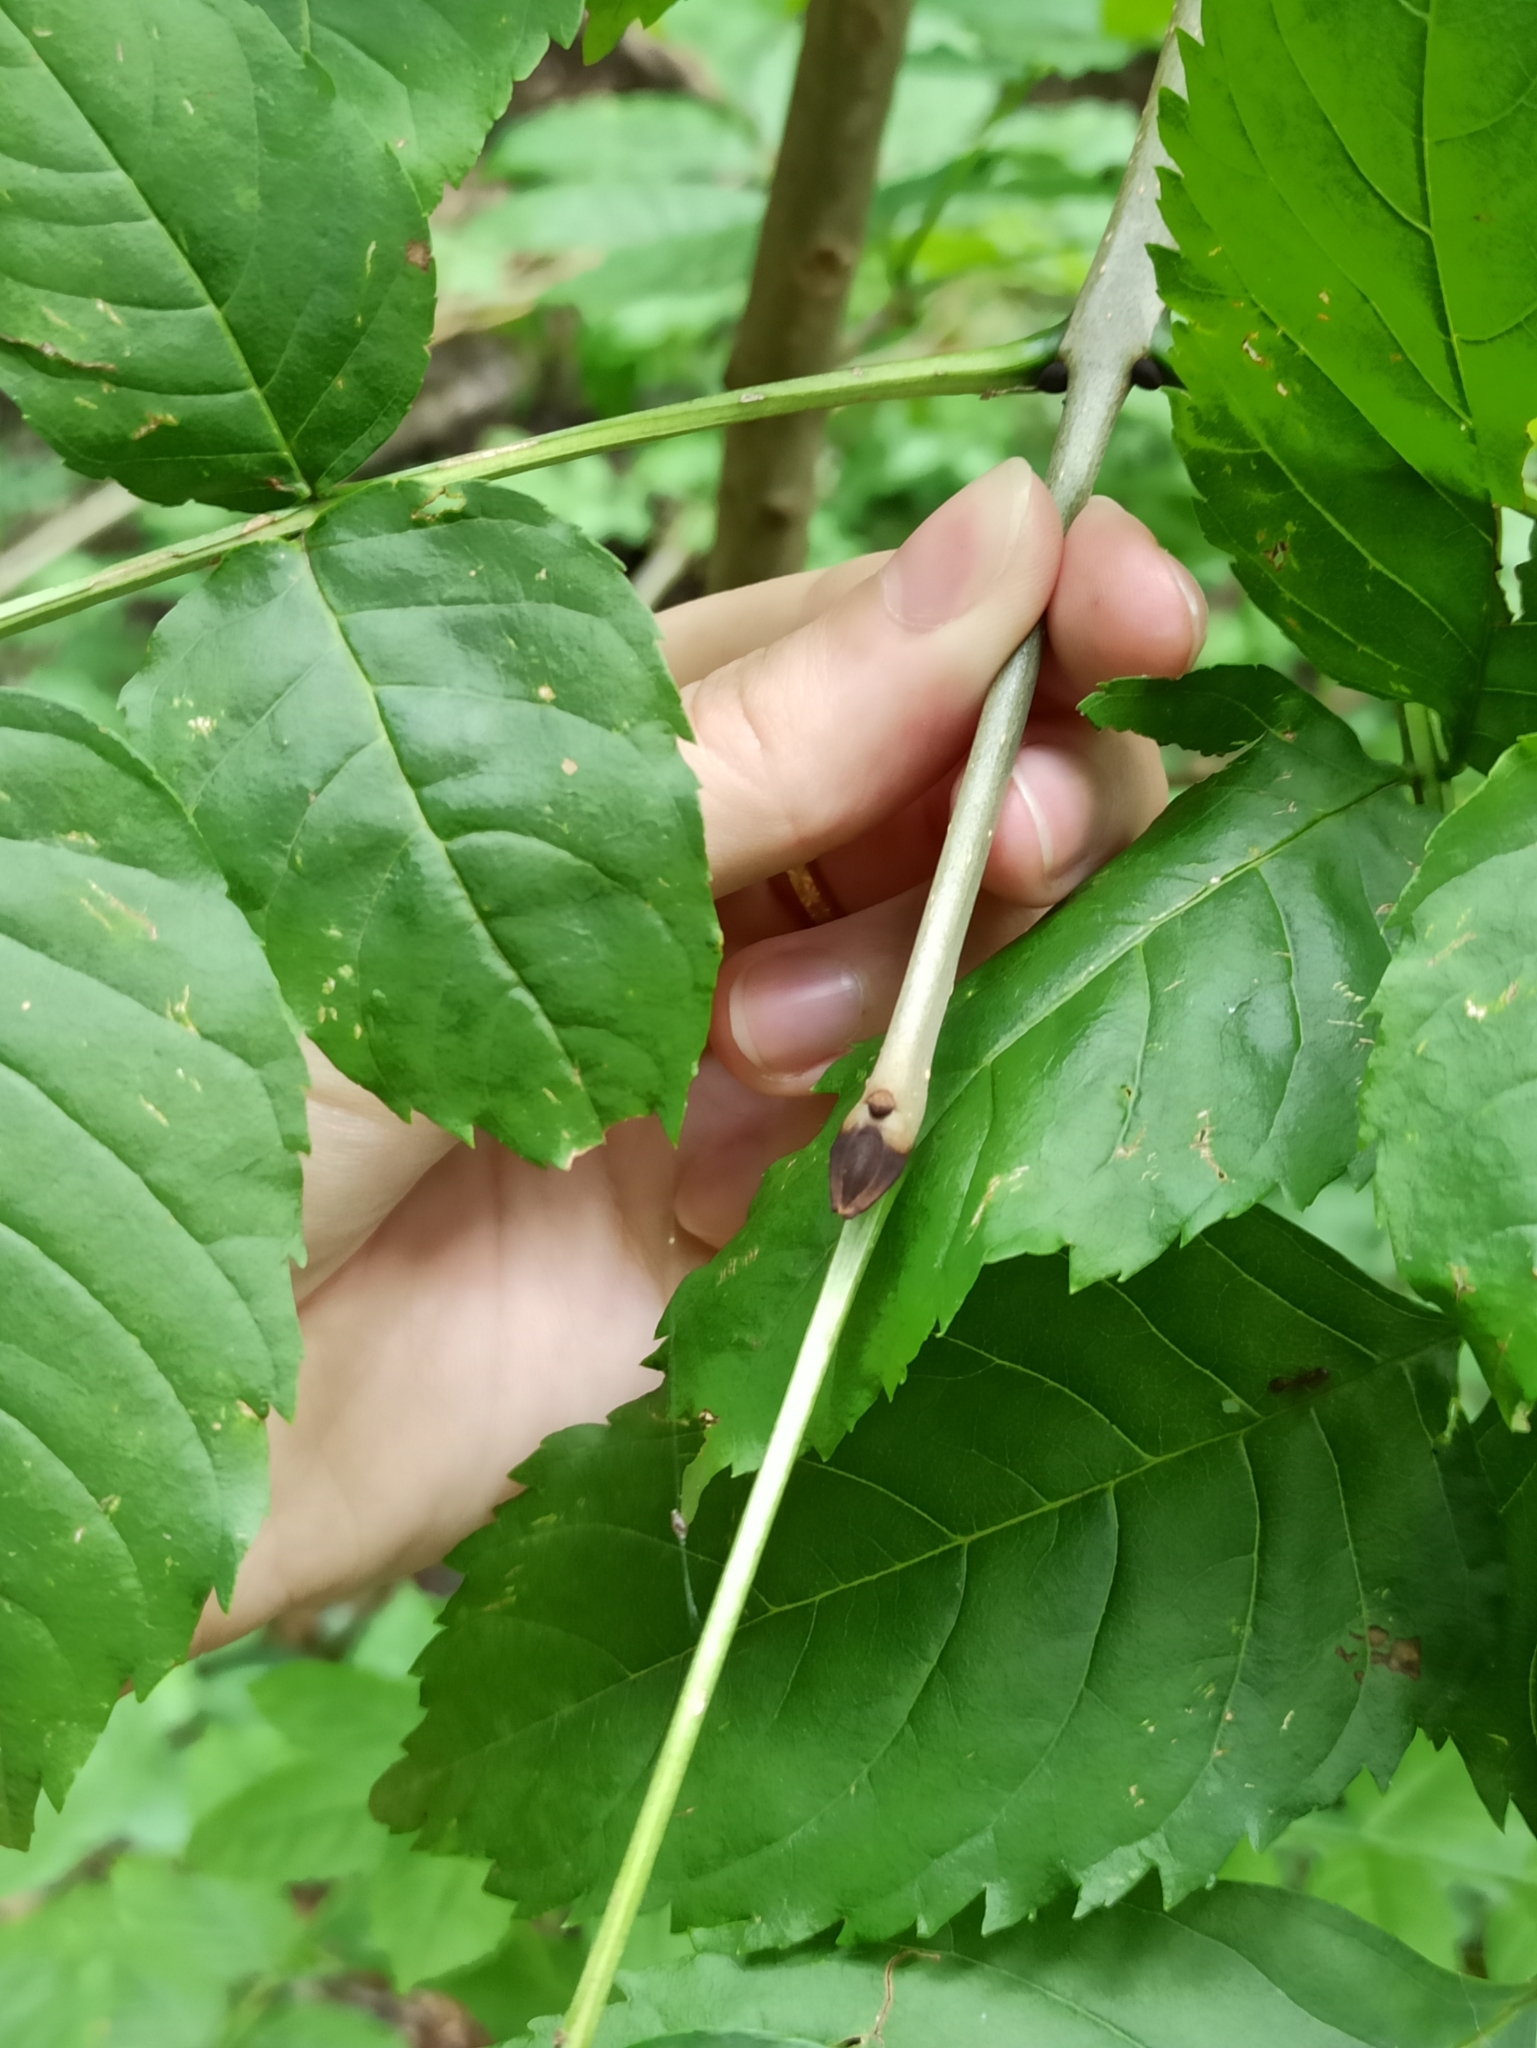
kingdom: Plantae
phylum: Tracheophyta
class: Magnoliopsida
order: Lamiales
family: Oleaceae
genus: Fraxinus
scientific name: Fraxinus excelsior
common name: European ash
